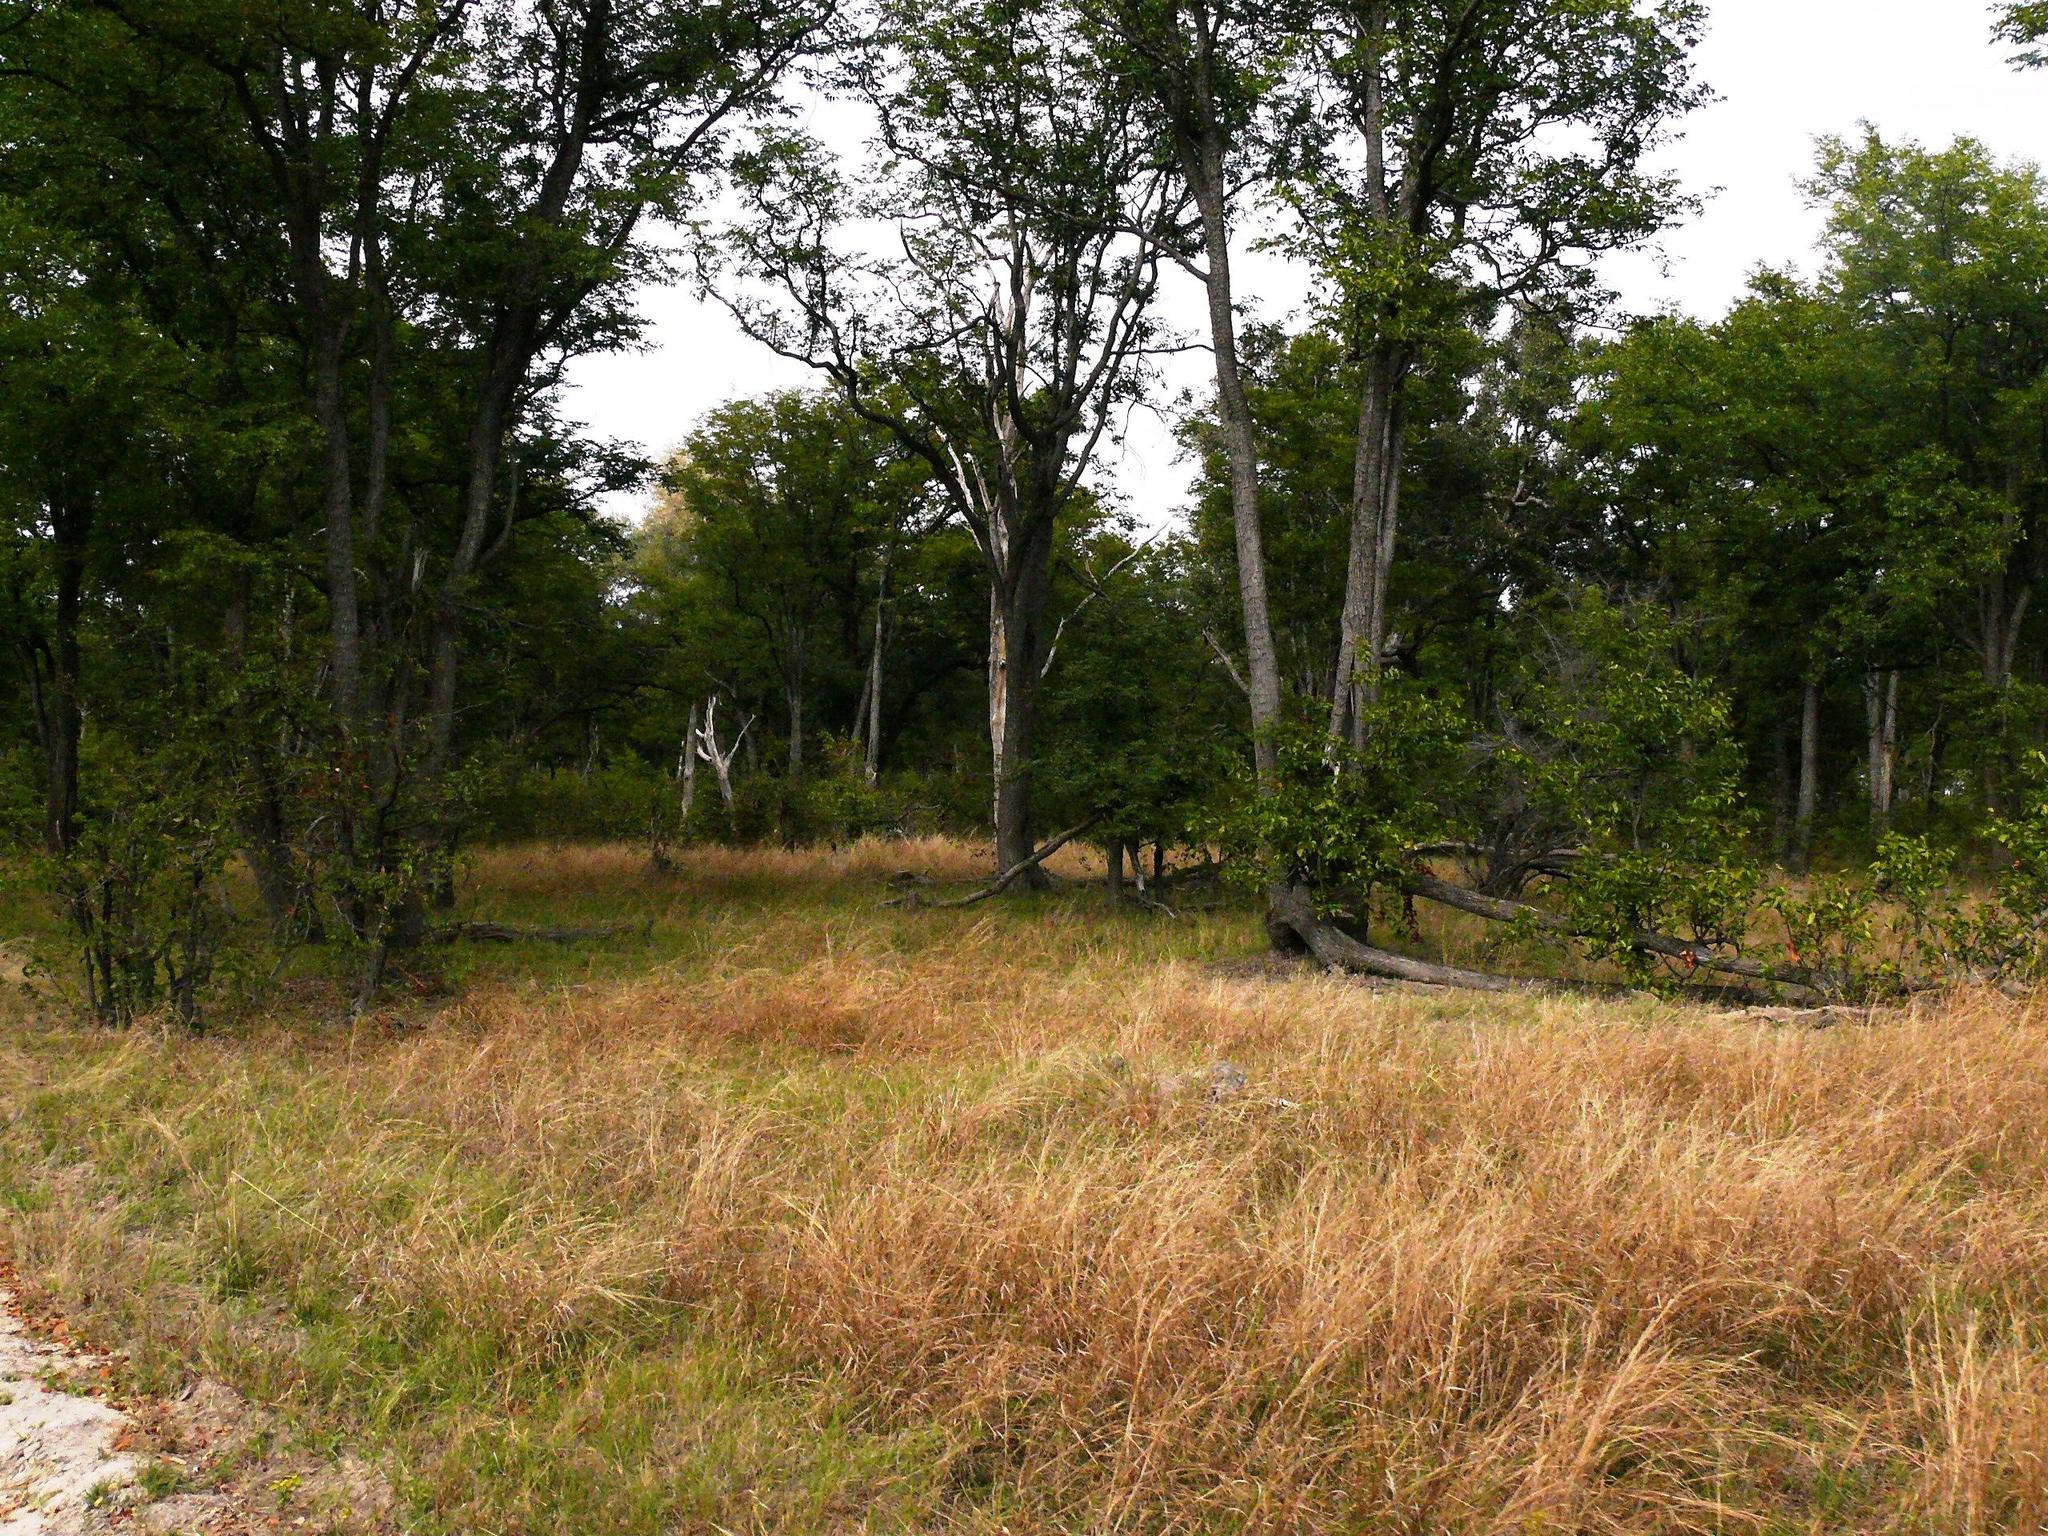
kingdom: Plantae
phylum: Tracheophyta
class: Magnoliopsida
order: Fabales
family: Fabaceae
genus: Colophospermum
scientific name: Colophospermum mopane
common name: Mopane
